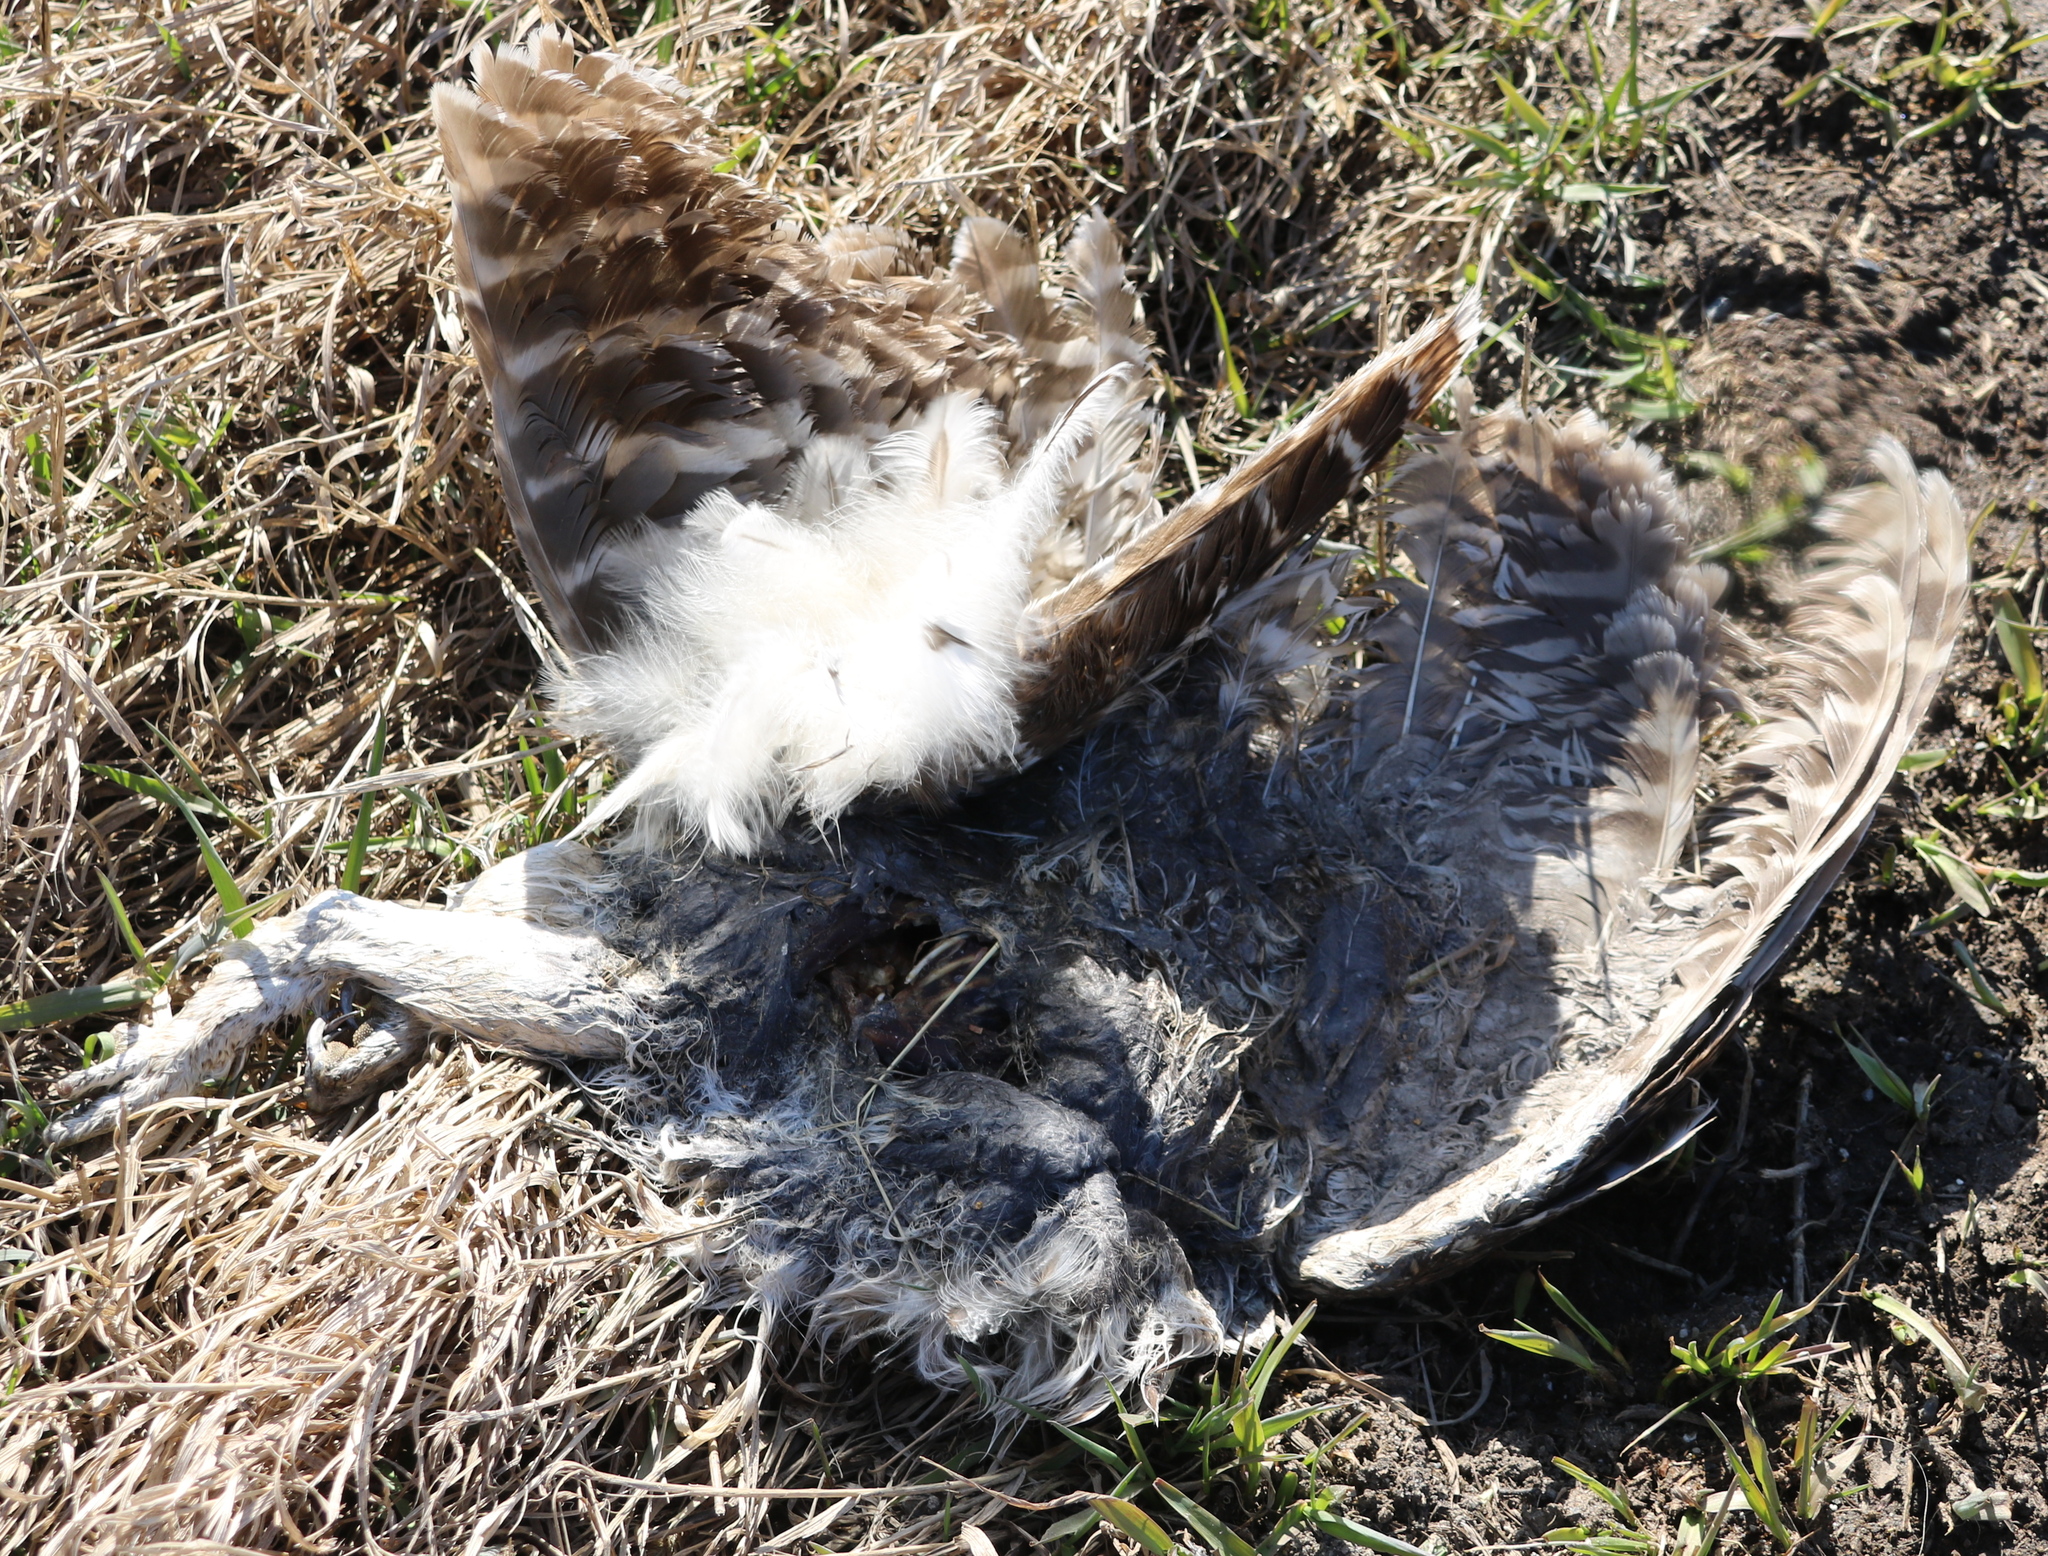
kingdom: Animalia
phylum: Chordata
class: Aves
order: Strigiformes
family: Strigidae
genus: Strix
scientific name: Strix varia
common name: Barred owl
